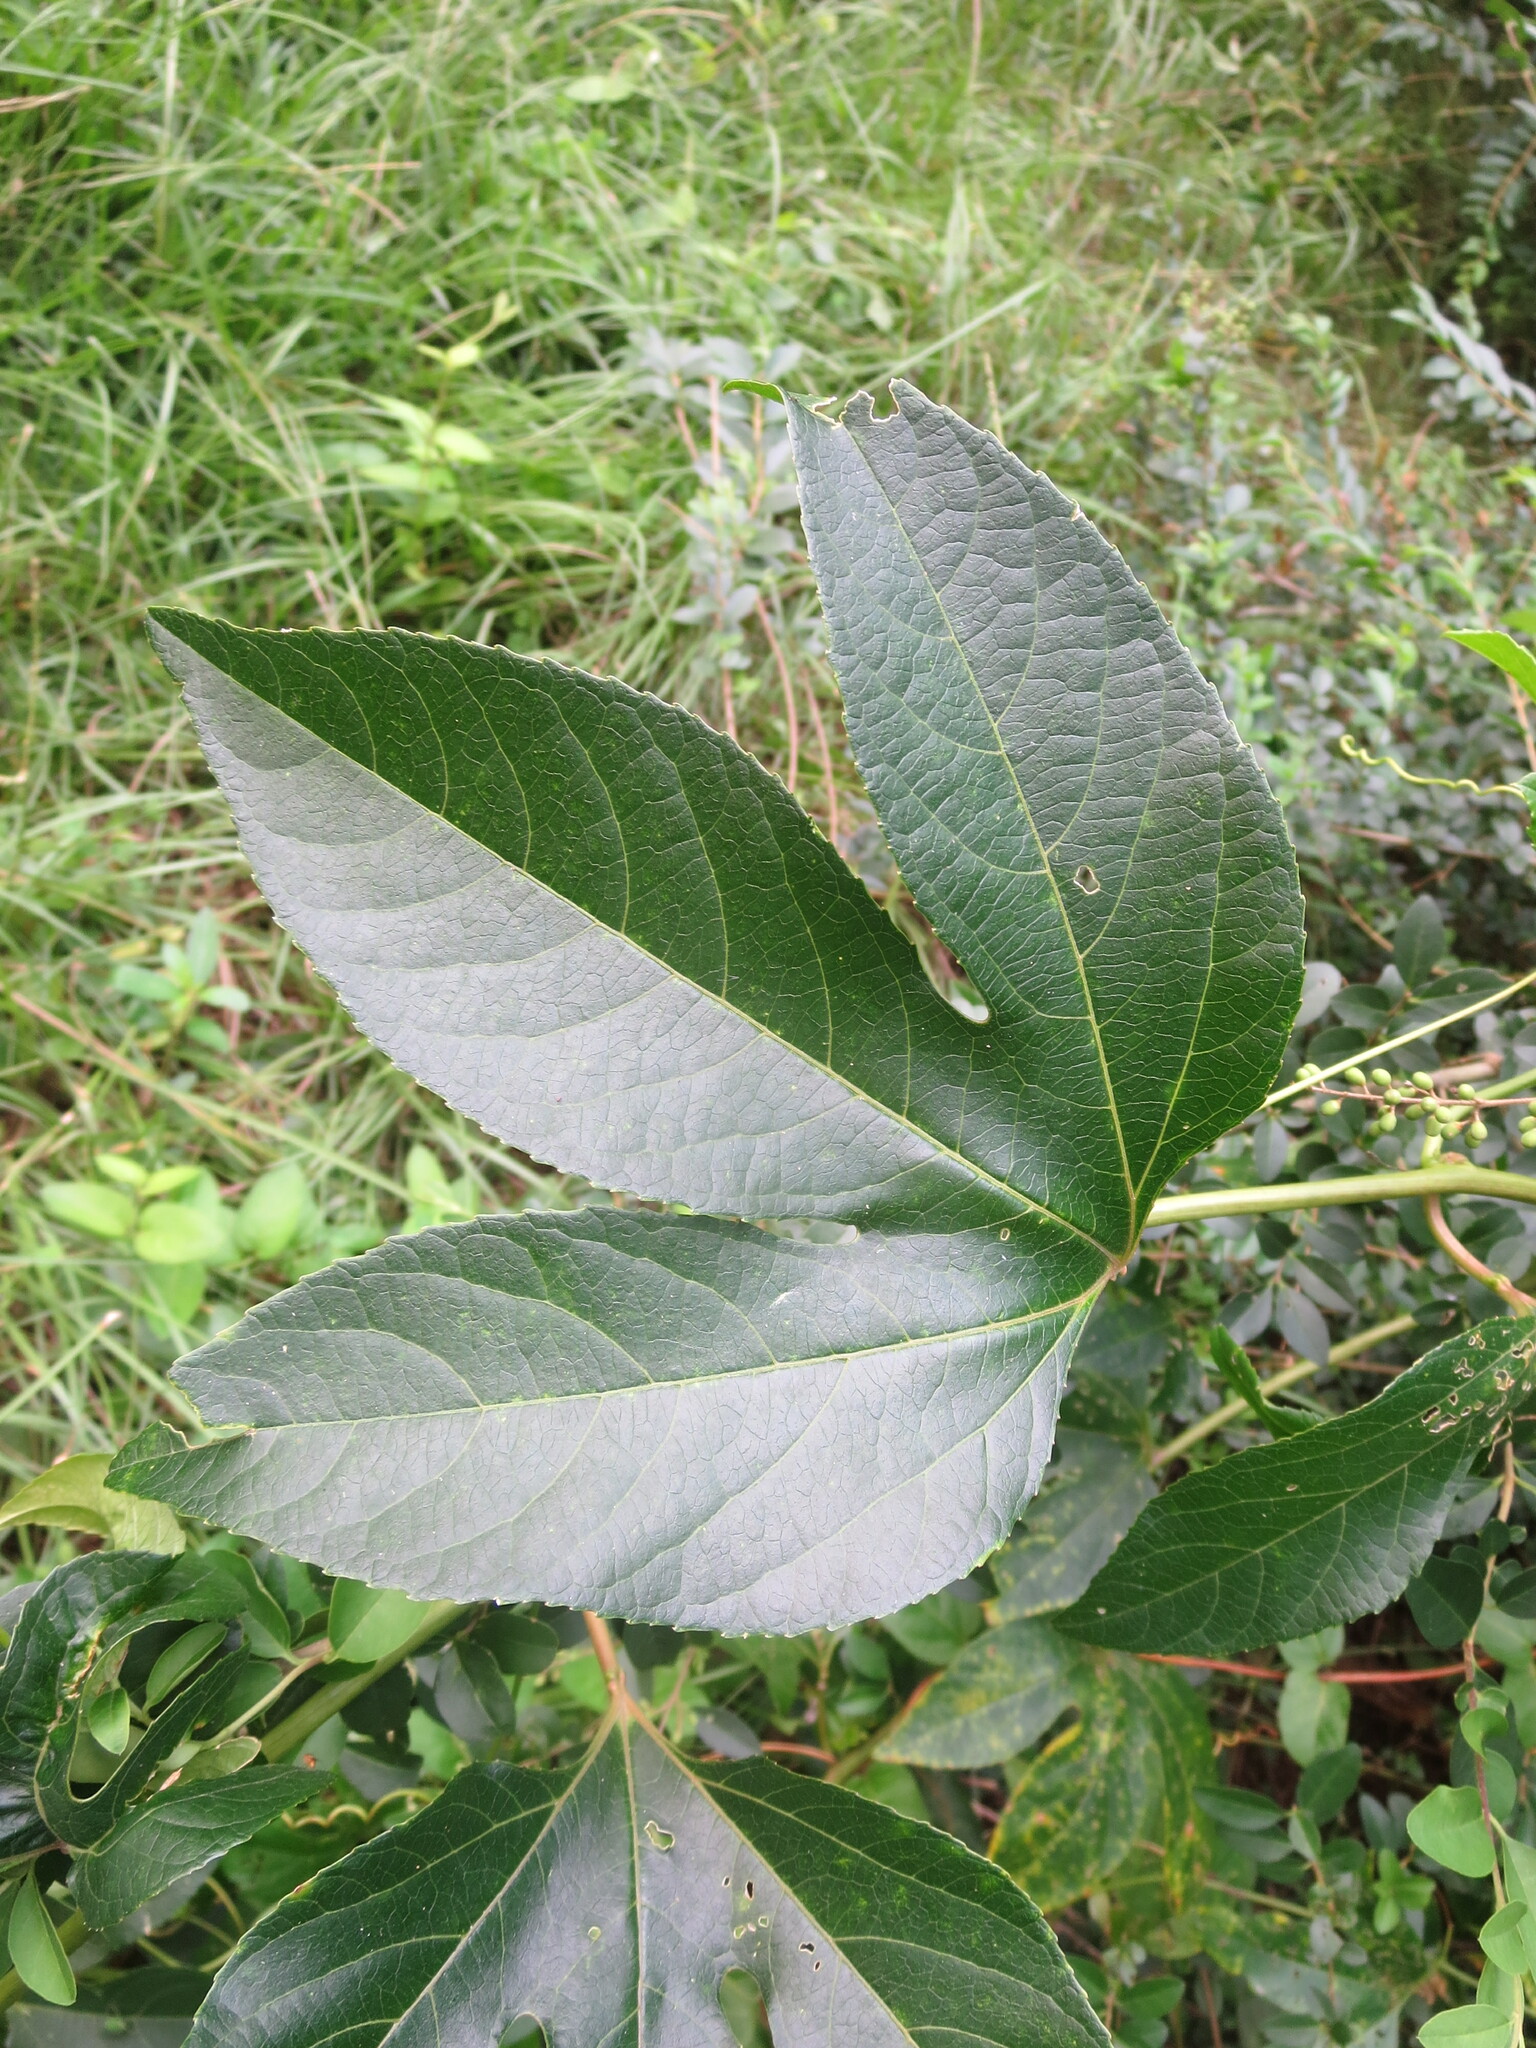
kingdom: Plantae
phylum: Tracheophyta
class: Magnoliopsida
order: Malpighiales
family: Passifloraceae
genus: Passiflora
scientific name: Passiflora incarnata
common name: Apricot-vine
